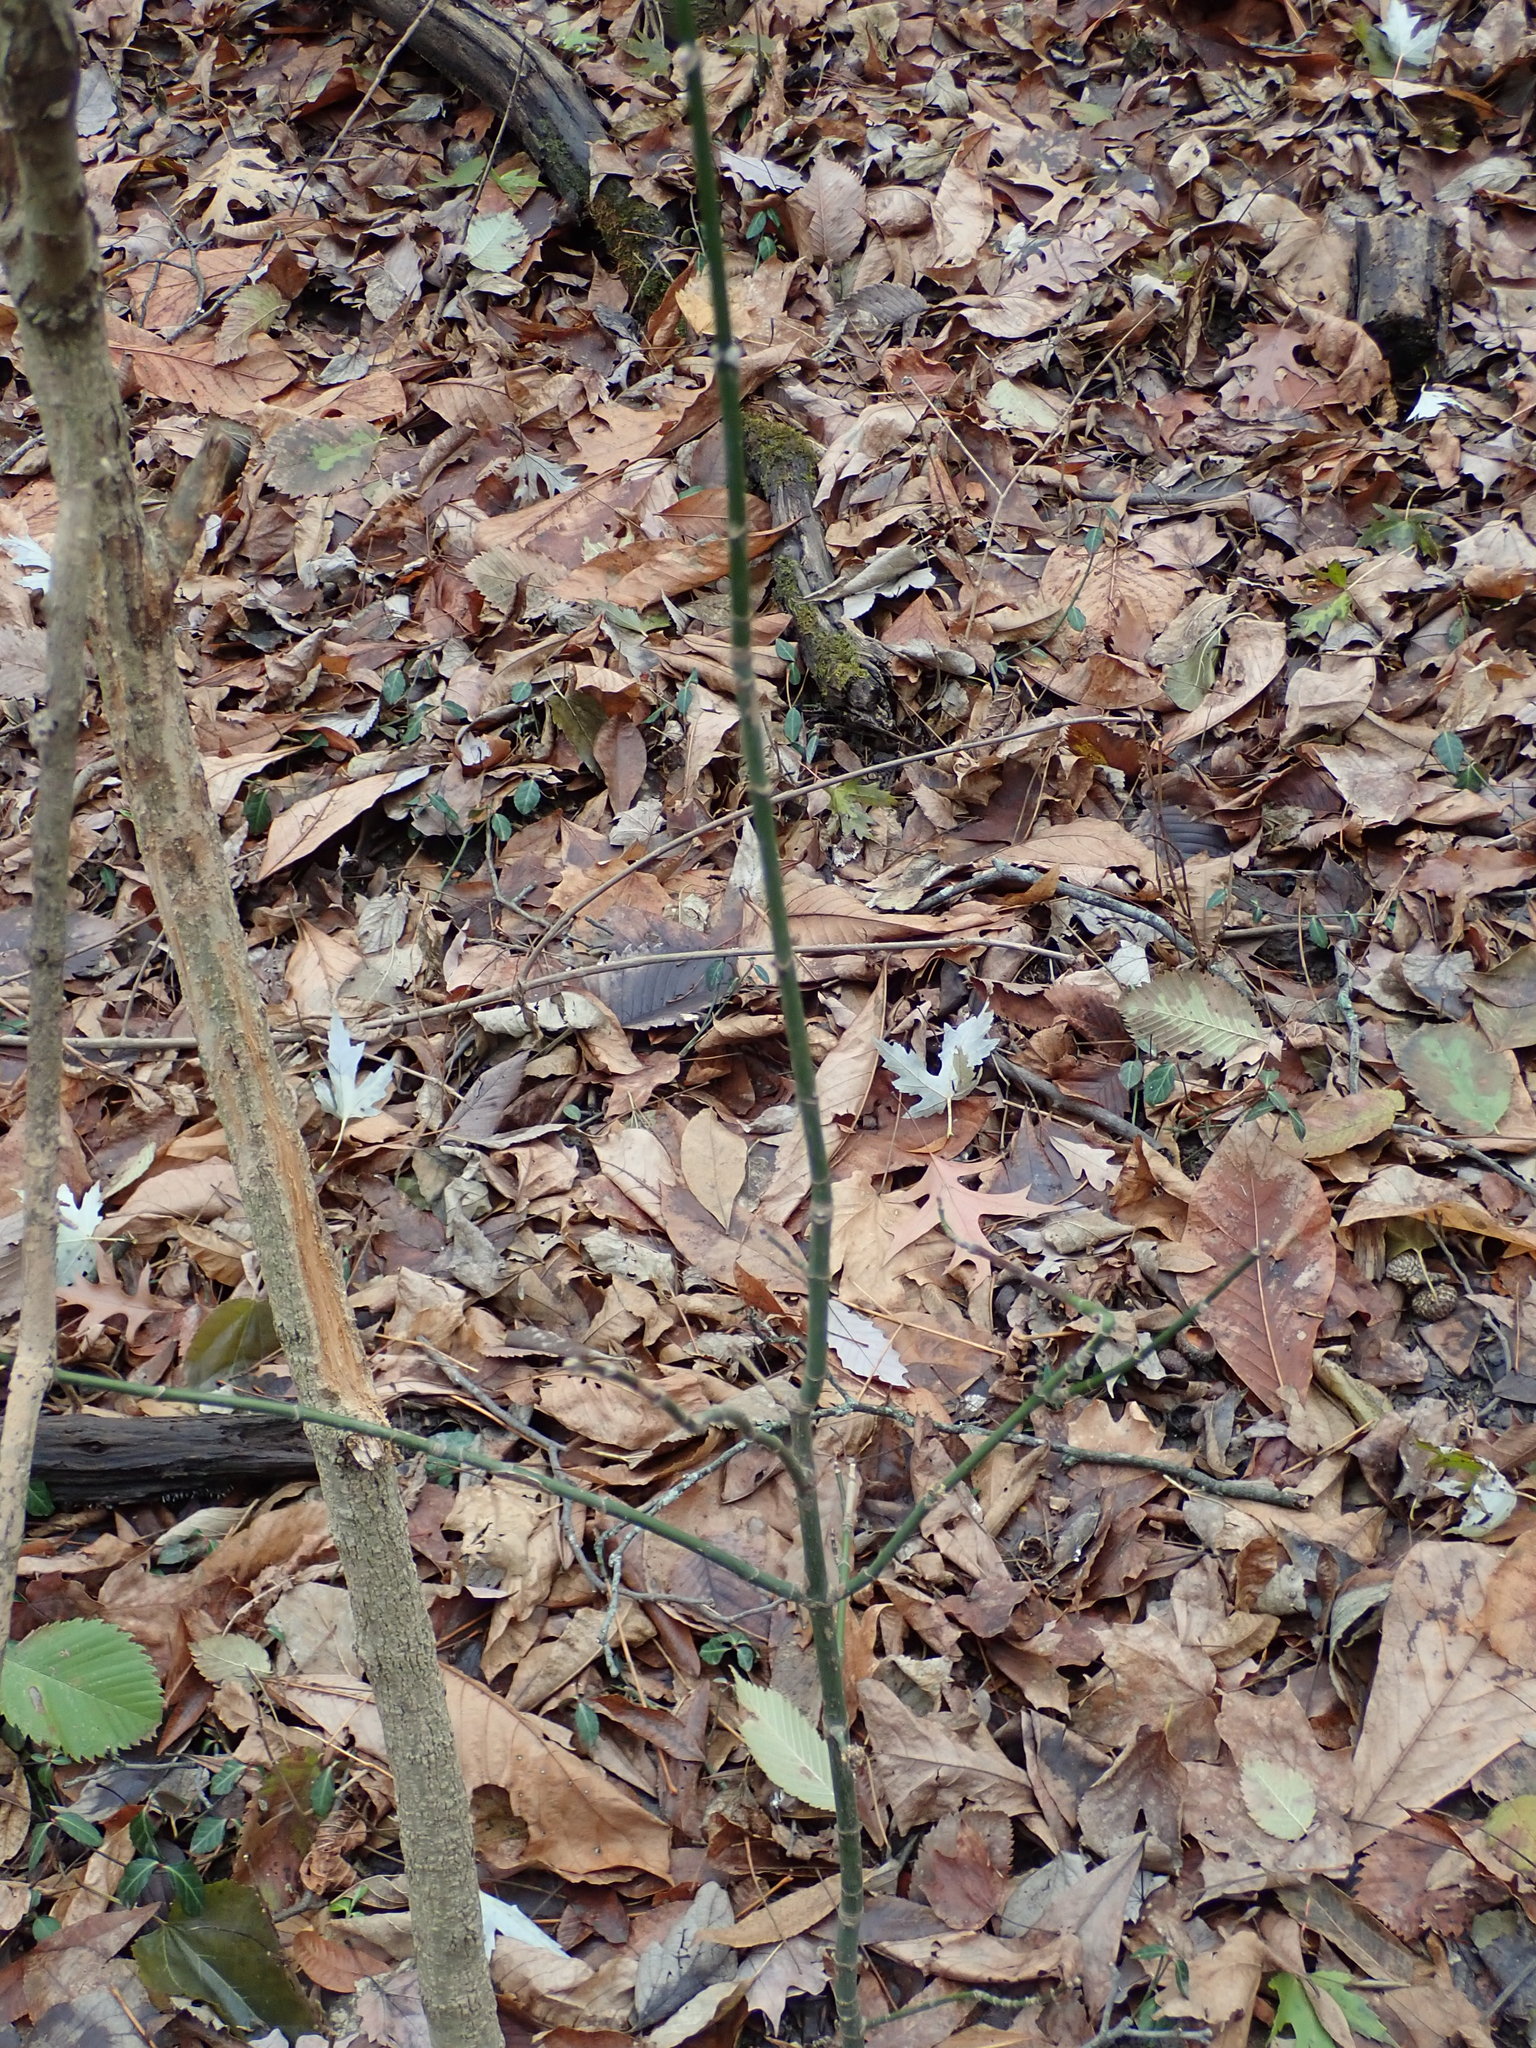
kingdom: Plantae
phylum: Tracheophyta
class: Magnoliopsida
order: Sapindales
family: Sapindaceae
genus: Acer
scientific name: Acer negundo
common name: Ashleaf maple
